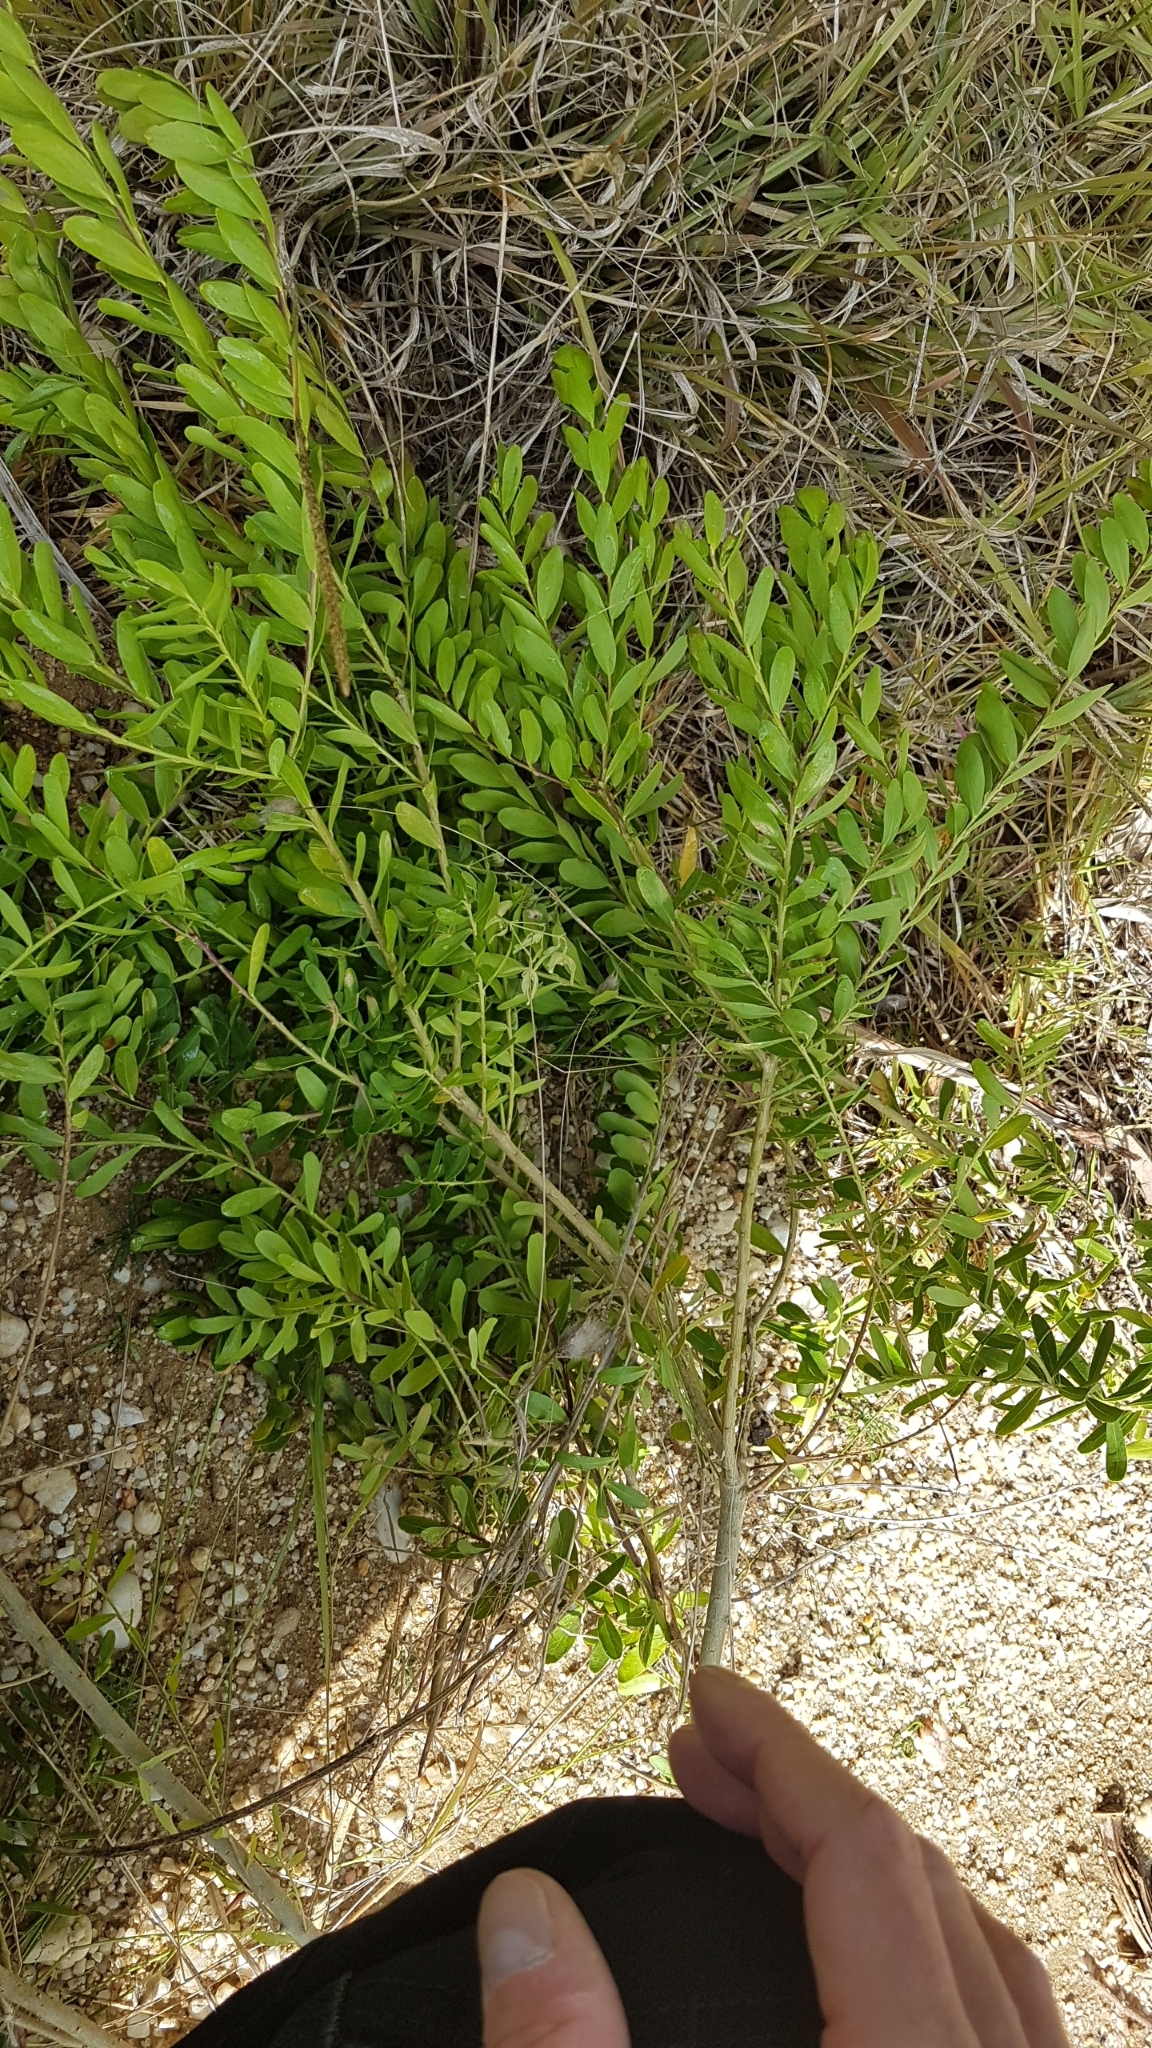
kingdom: Plantae
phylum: Tracheophyta
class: Magnoliopsida
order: Fabales
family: Polygalaceae
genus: Polygala
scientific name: Polygala myrtifolia
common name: Myrtle-leaf milkwort
